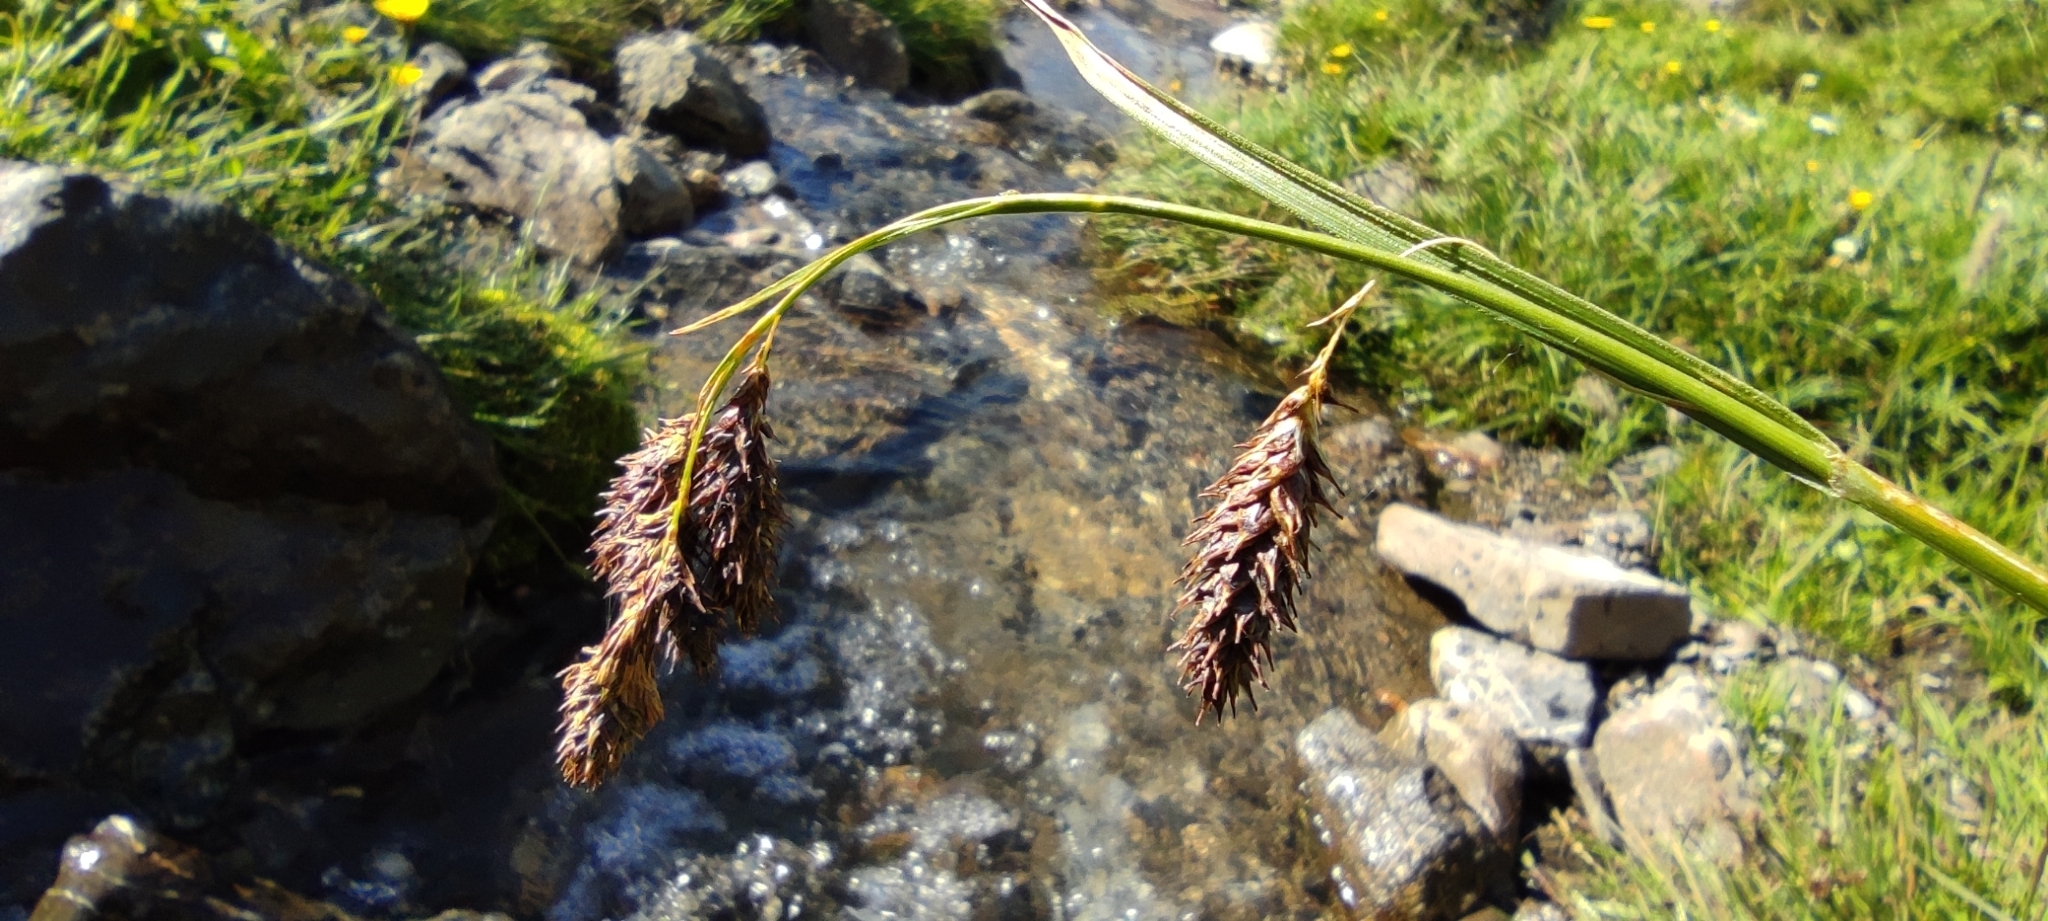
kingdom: Plantae
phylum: Tracheophyta
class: Liliopsida
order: Poales
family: Cyperaceae
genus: Carex
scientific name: Carex frigida
